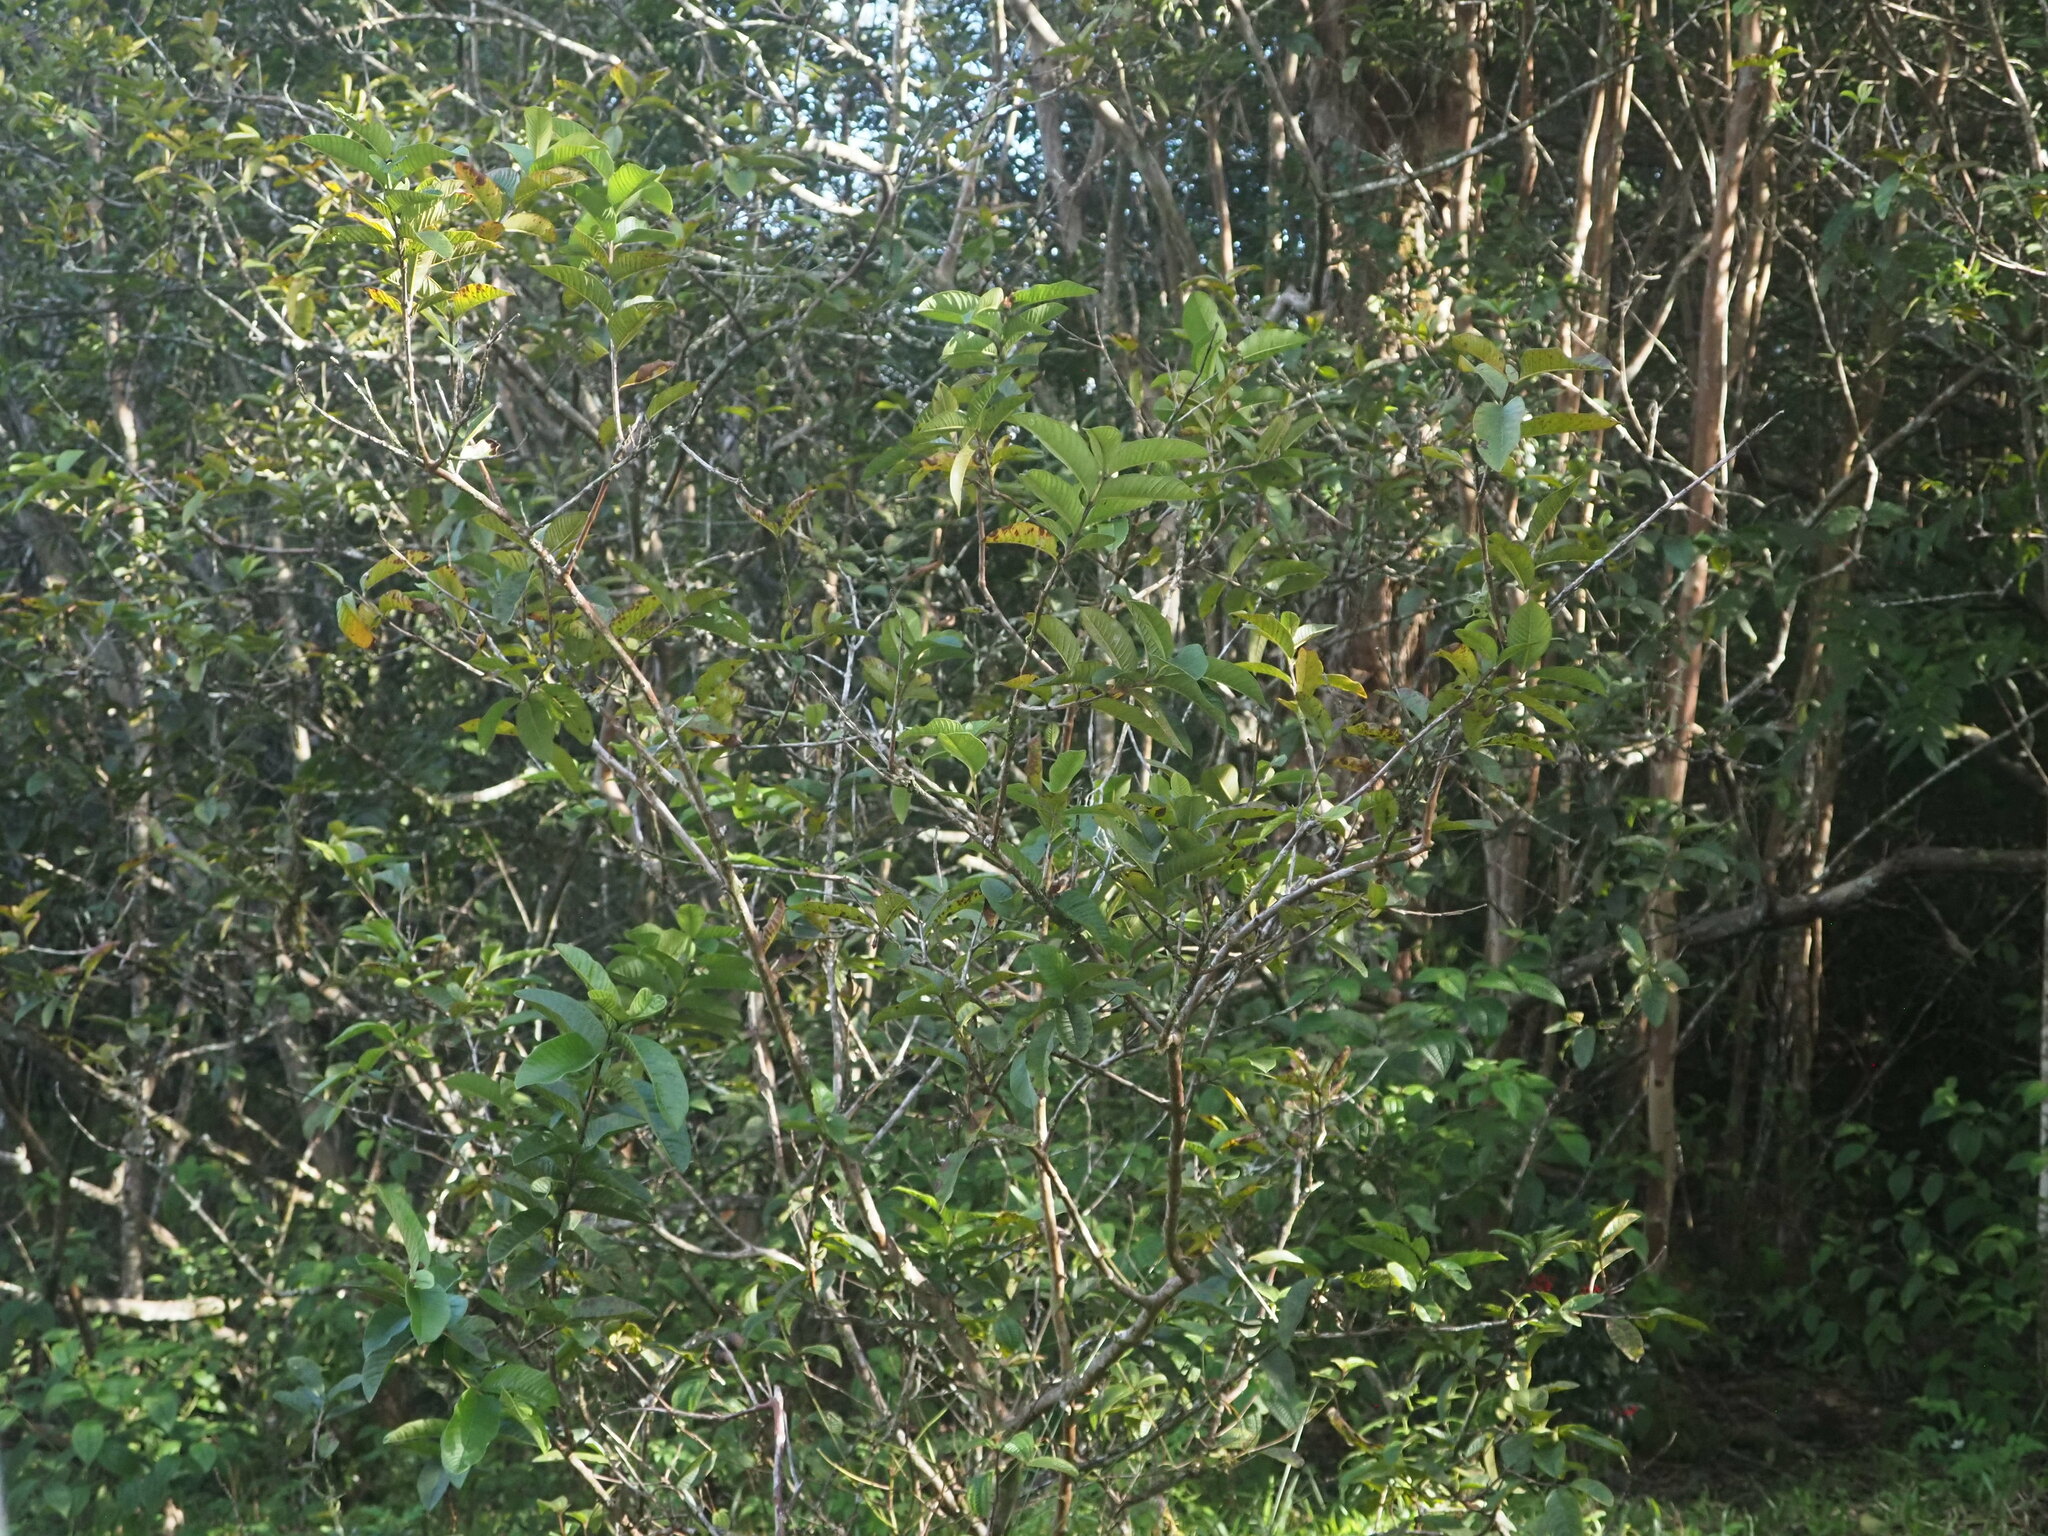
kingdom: Plantae
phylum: Tracheophyta
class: Magnoliopsida
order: Myrtales
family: Myrtaceae
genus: Psidium
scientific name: Psidium guajava
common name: Guava
